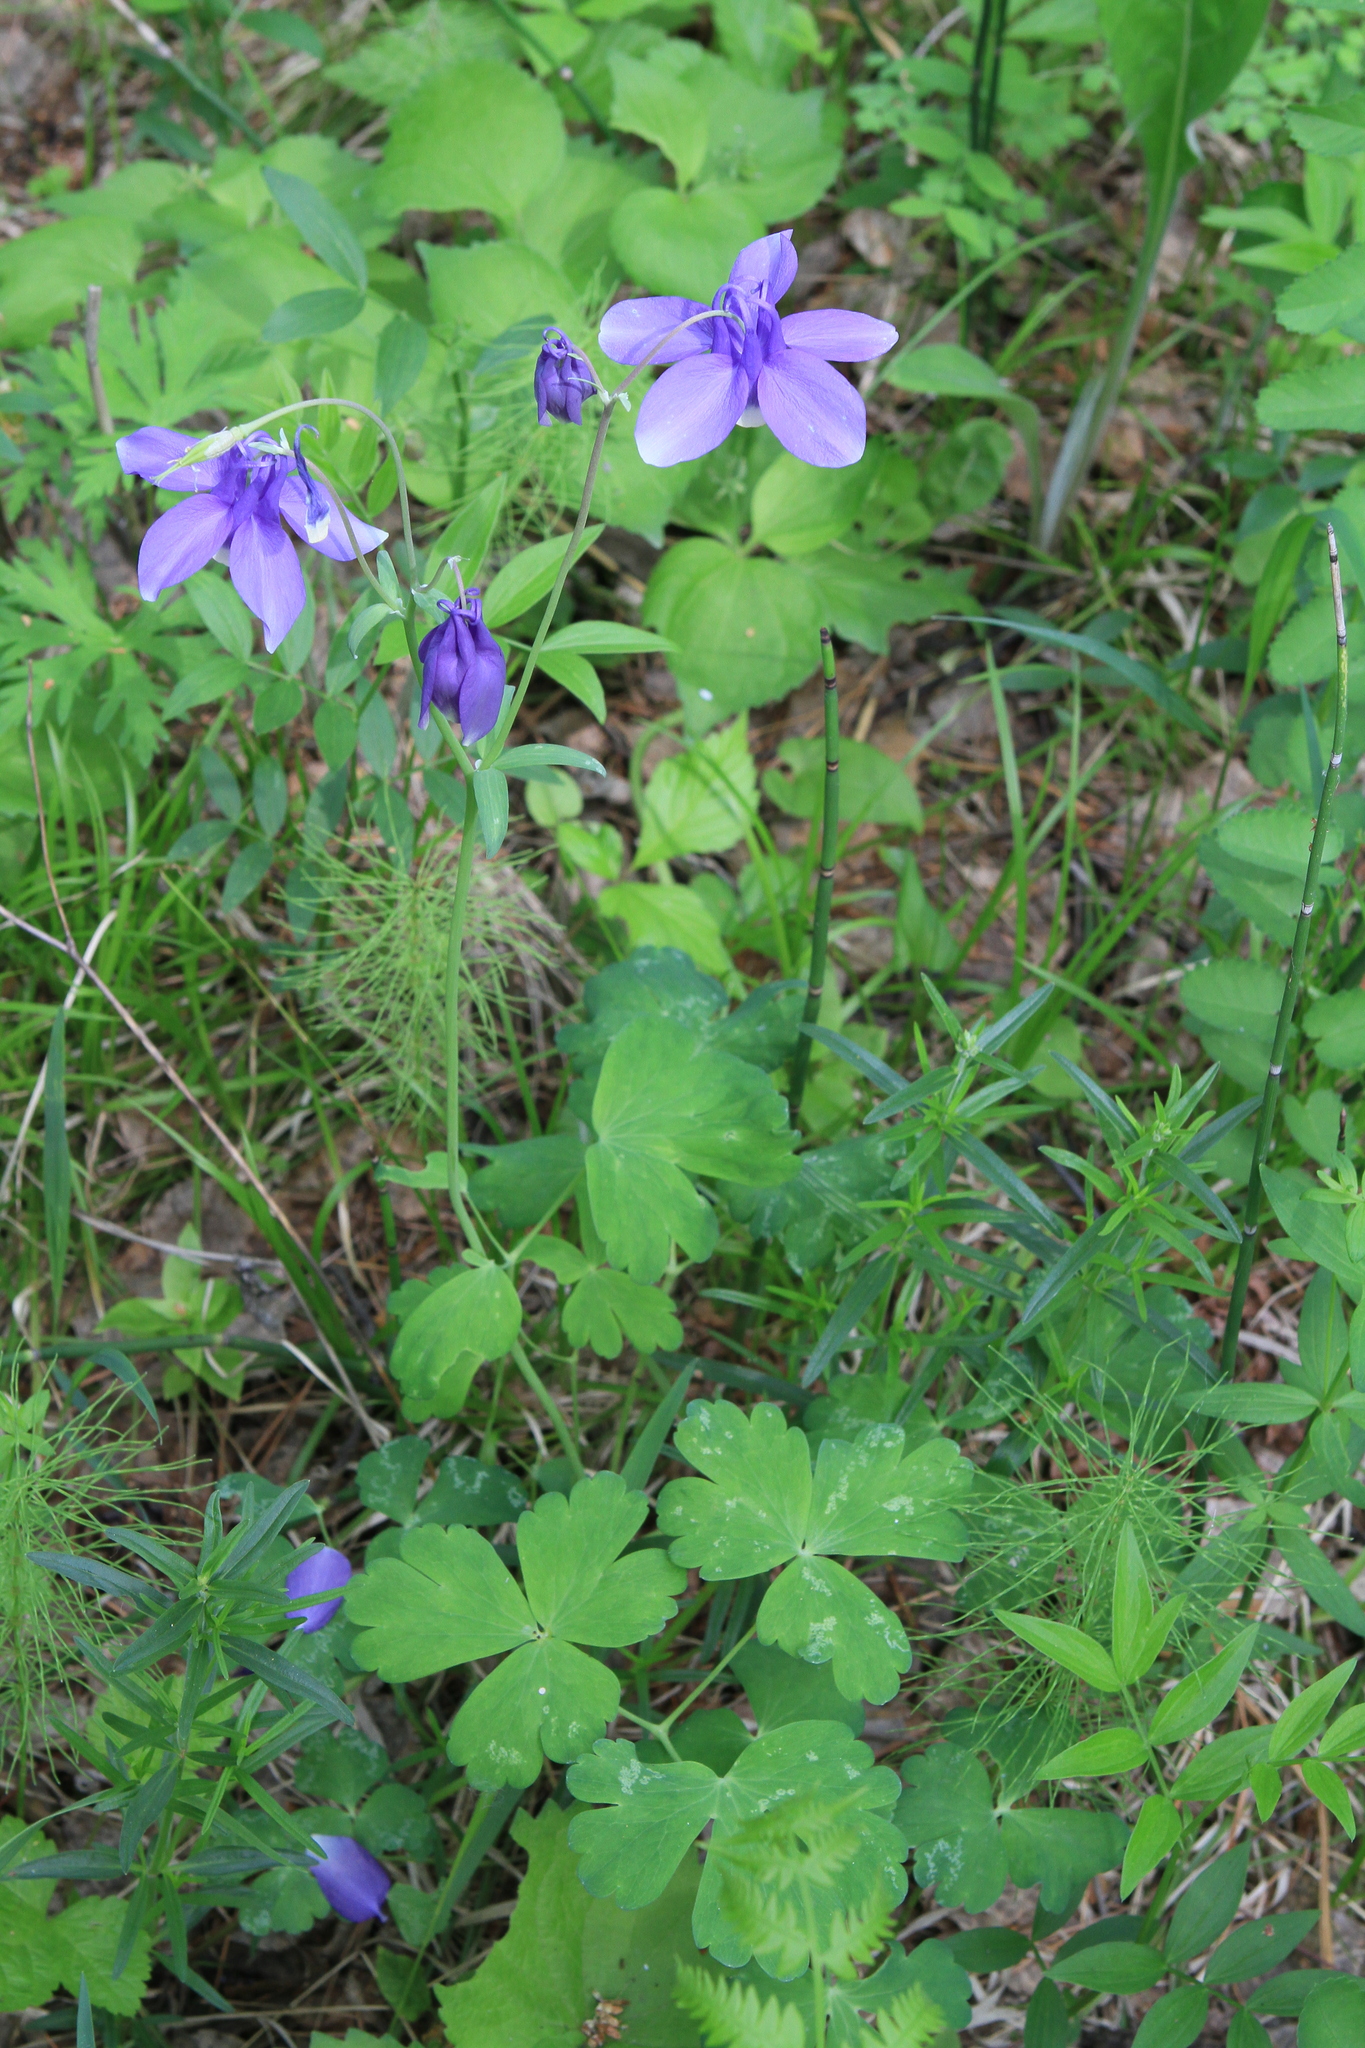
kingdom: Plantae
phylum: Tracheophyta
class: Magnoliopsida
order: Ranunculales
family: Ranunculaceae
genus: Aquilegia
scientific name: Aquilegia sibirica
